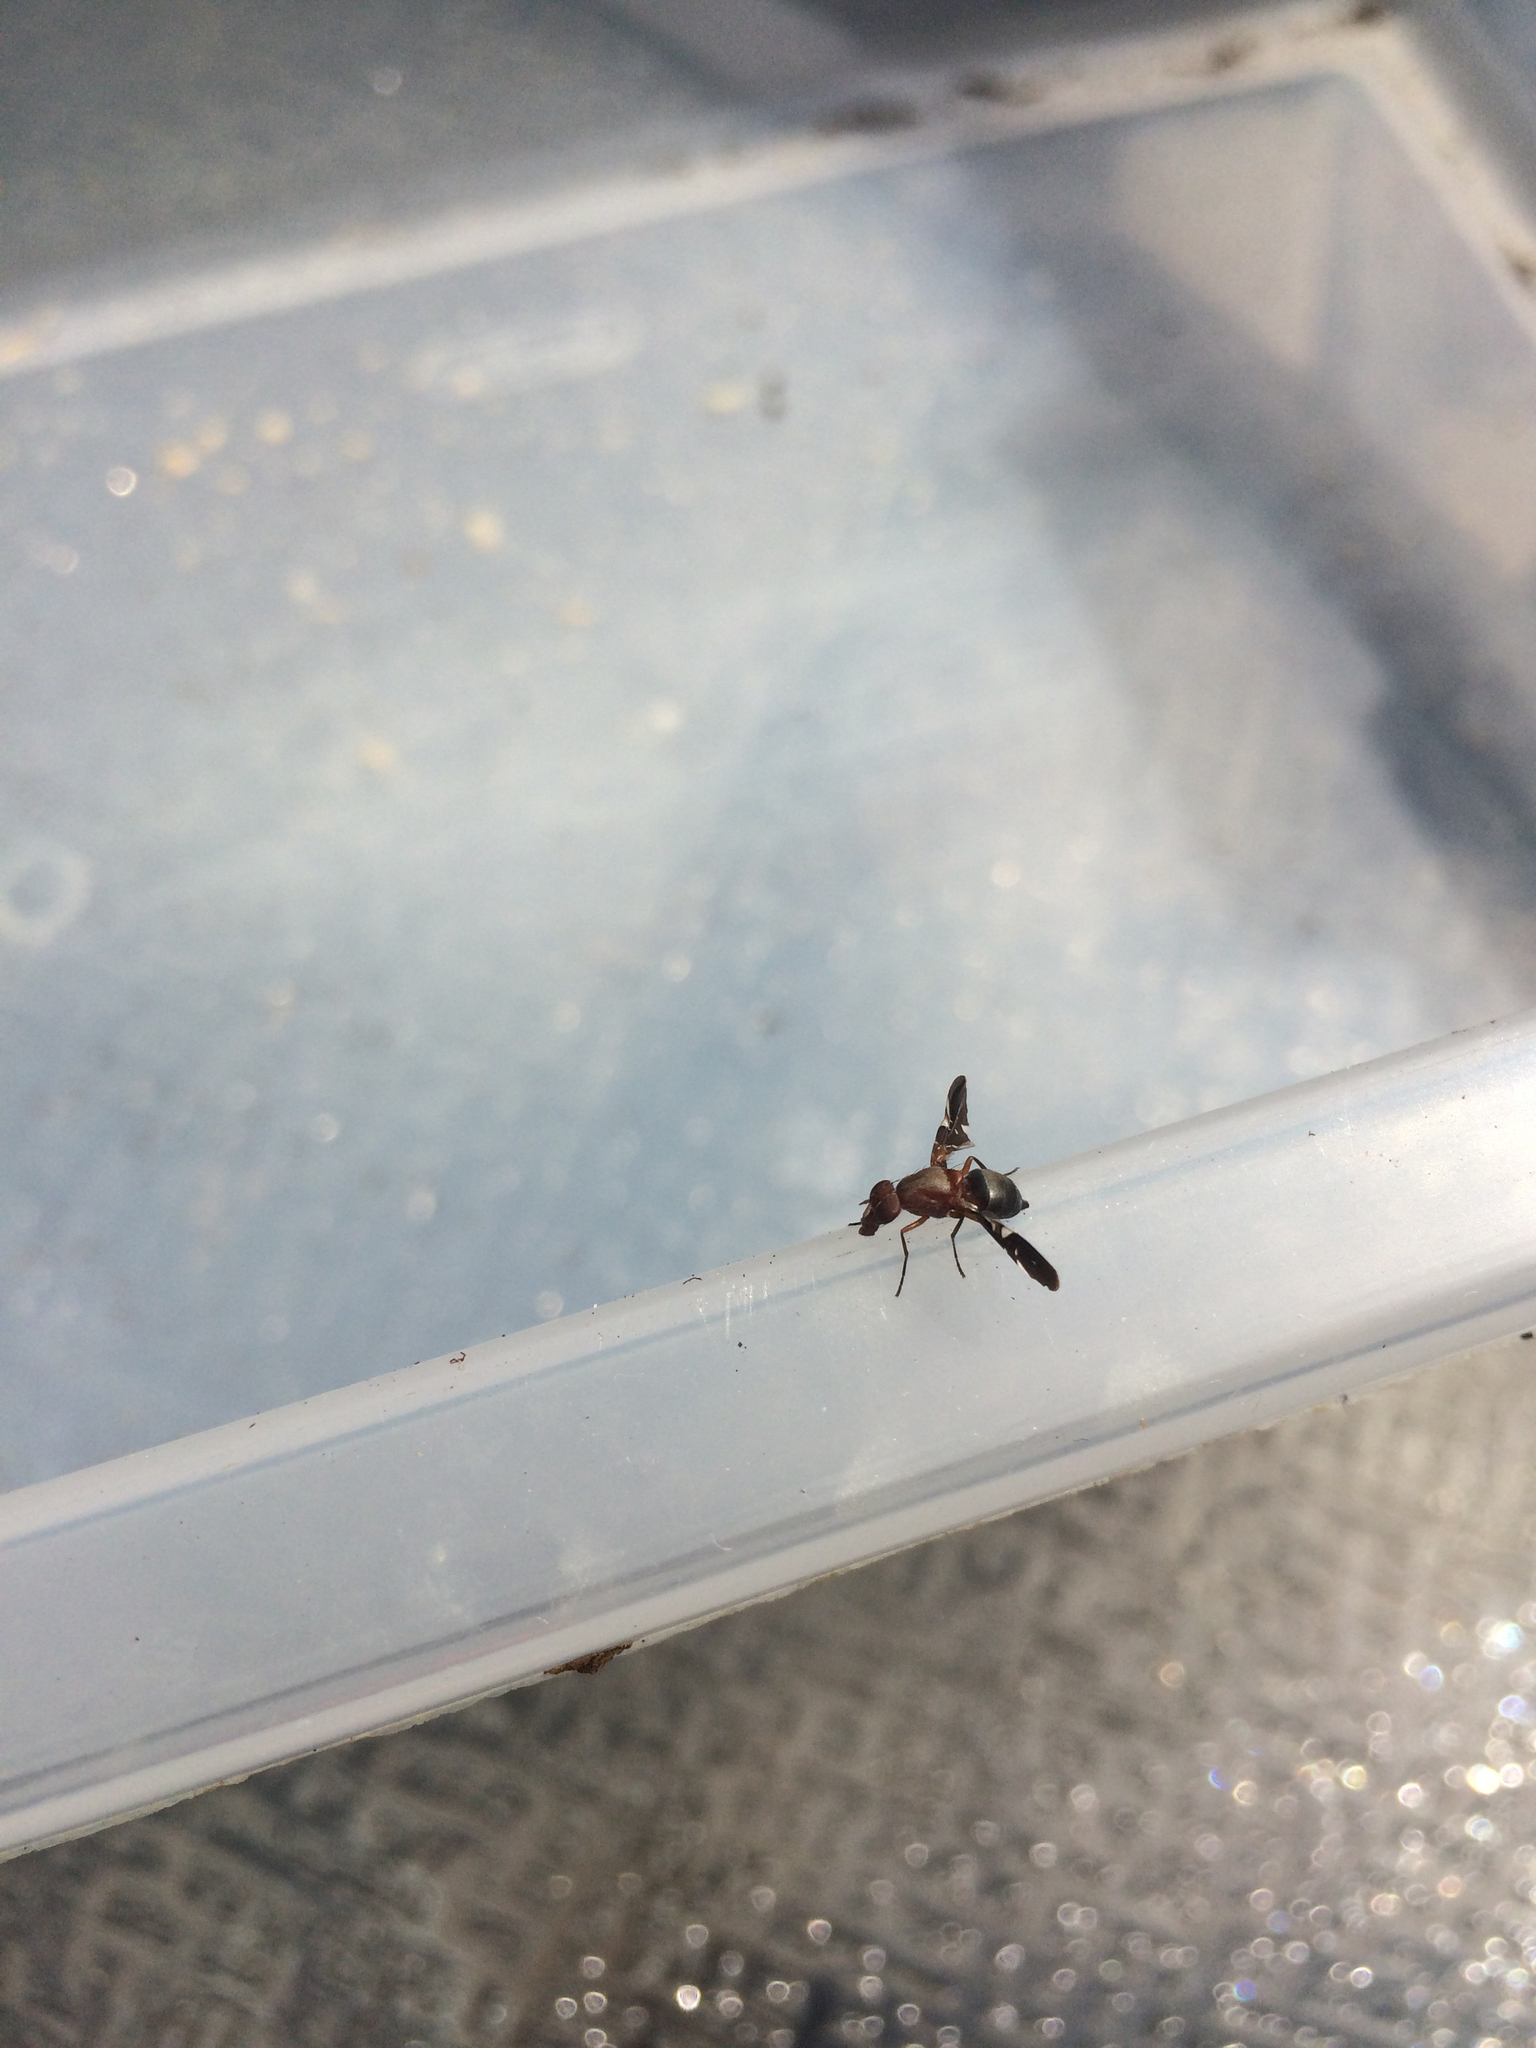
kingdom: Animalia
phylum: Arthropoda
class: Insecta
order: Diptera
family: Ulidiidae
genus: Delphinia
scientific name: Delphinia picta
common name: Common picture-winged fly
